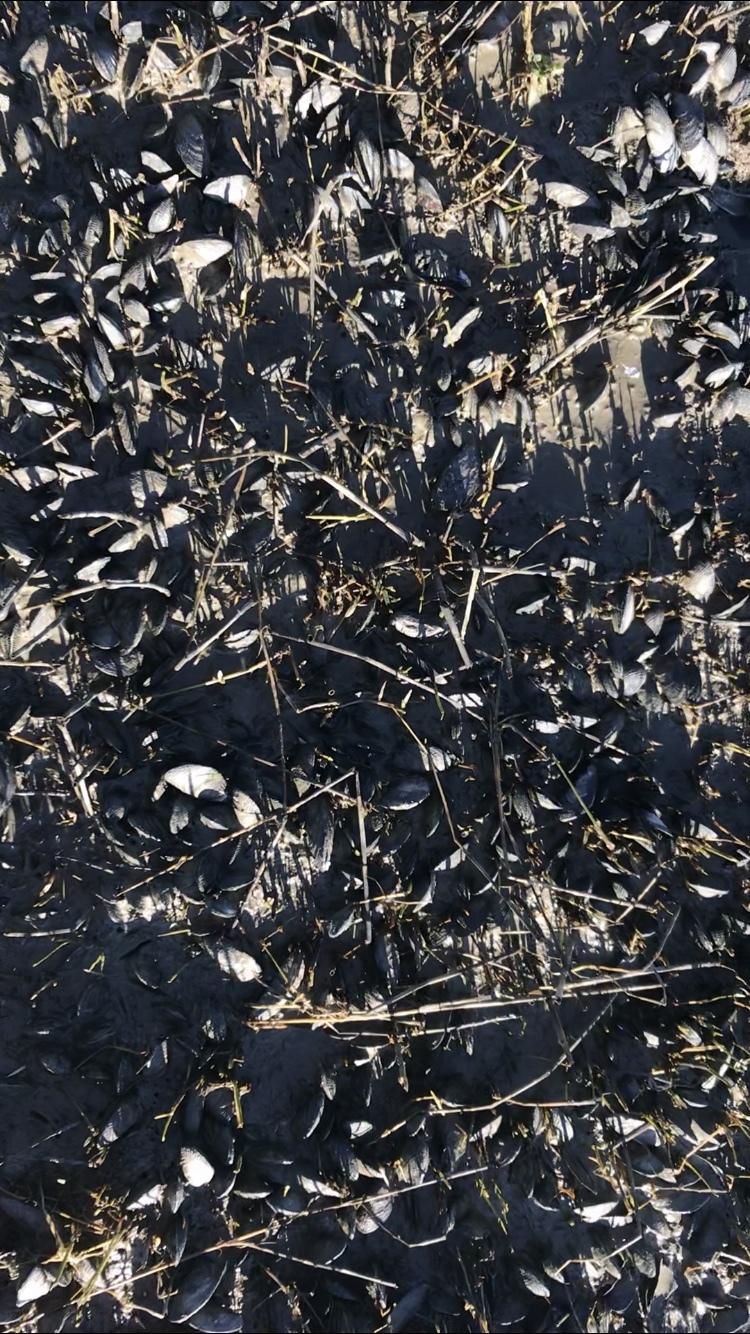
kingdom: Animalia
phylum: Mollusca
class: Bivalvia
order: Mytilida
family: Mytilidae
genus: Geukensia
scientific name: Geukensia demissa
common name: Ribbed mussel
